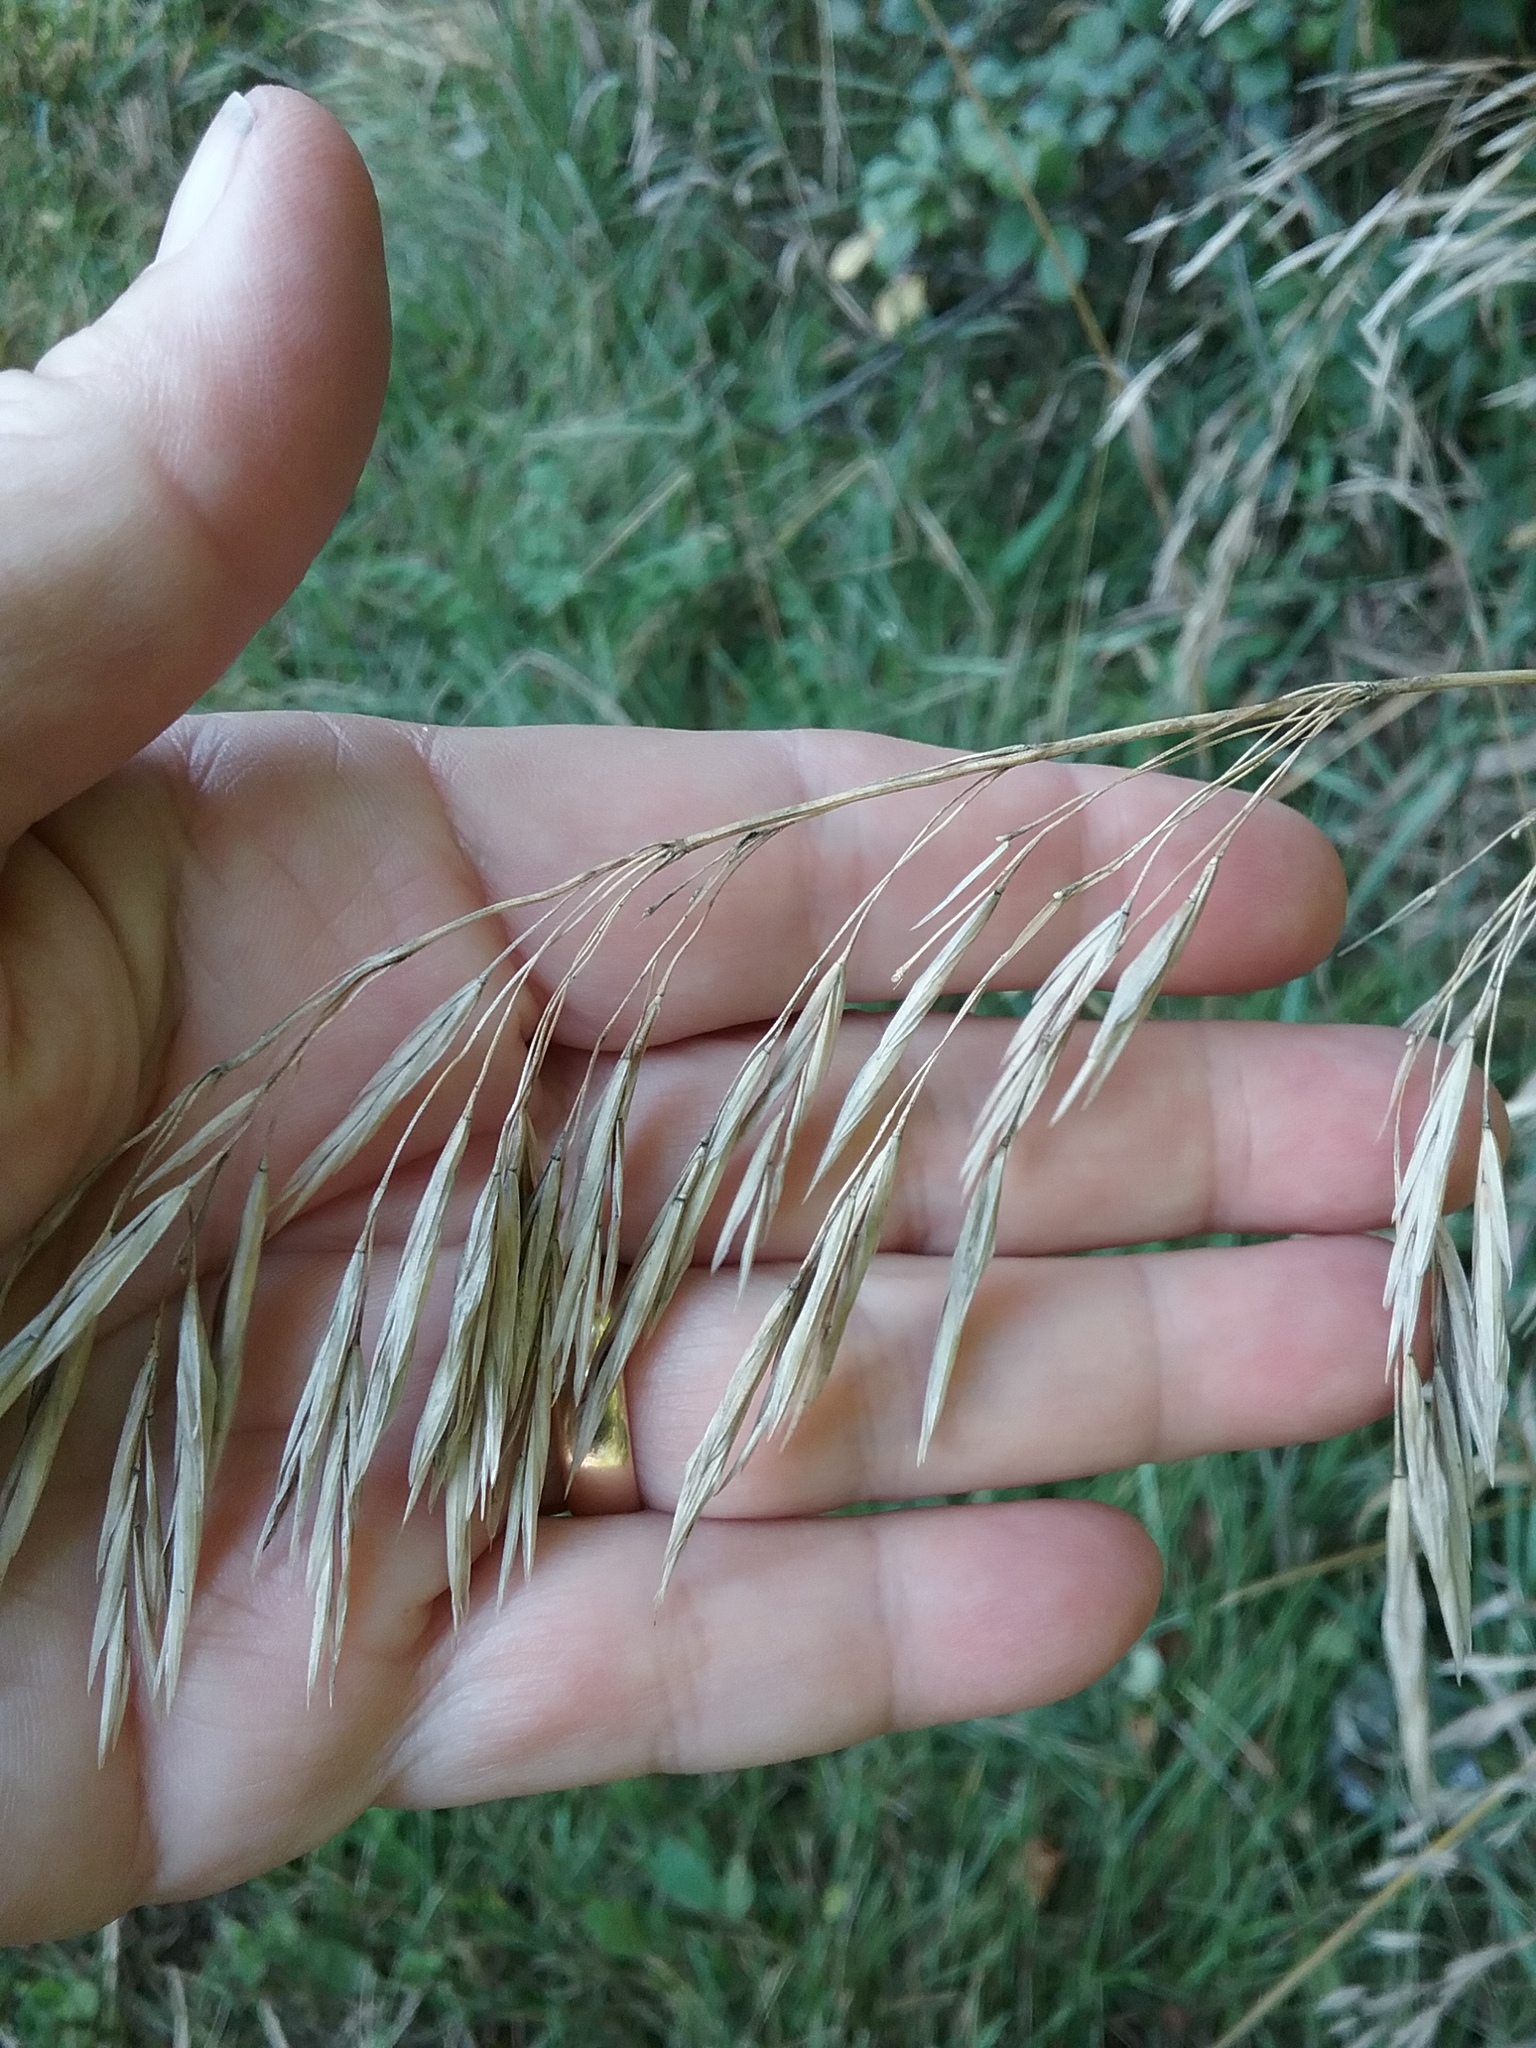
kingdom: Plantae
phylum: Tracheophyta
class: Liliopsida
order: Poales
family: Poaceae
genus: Bromus
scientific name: Bromus inermis
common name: Smooth brome
